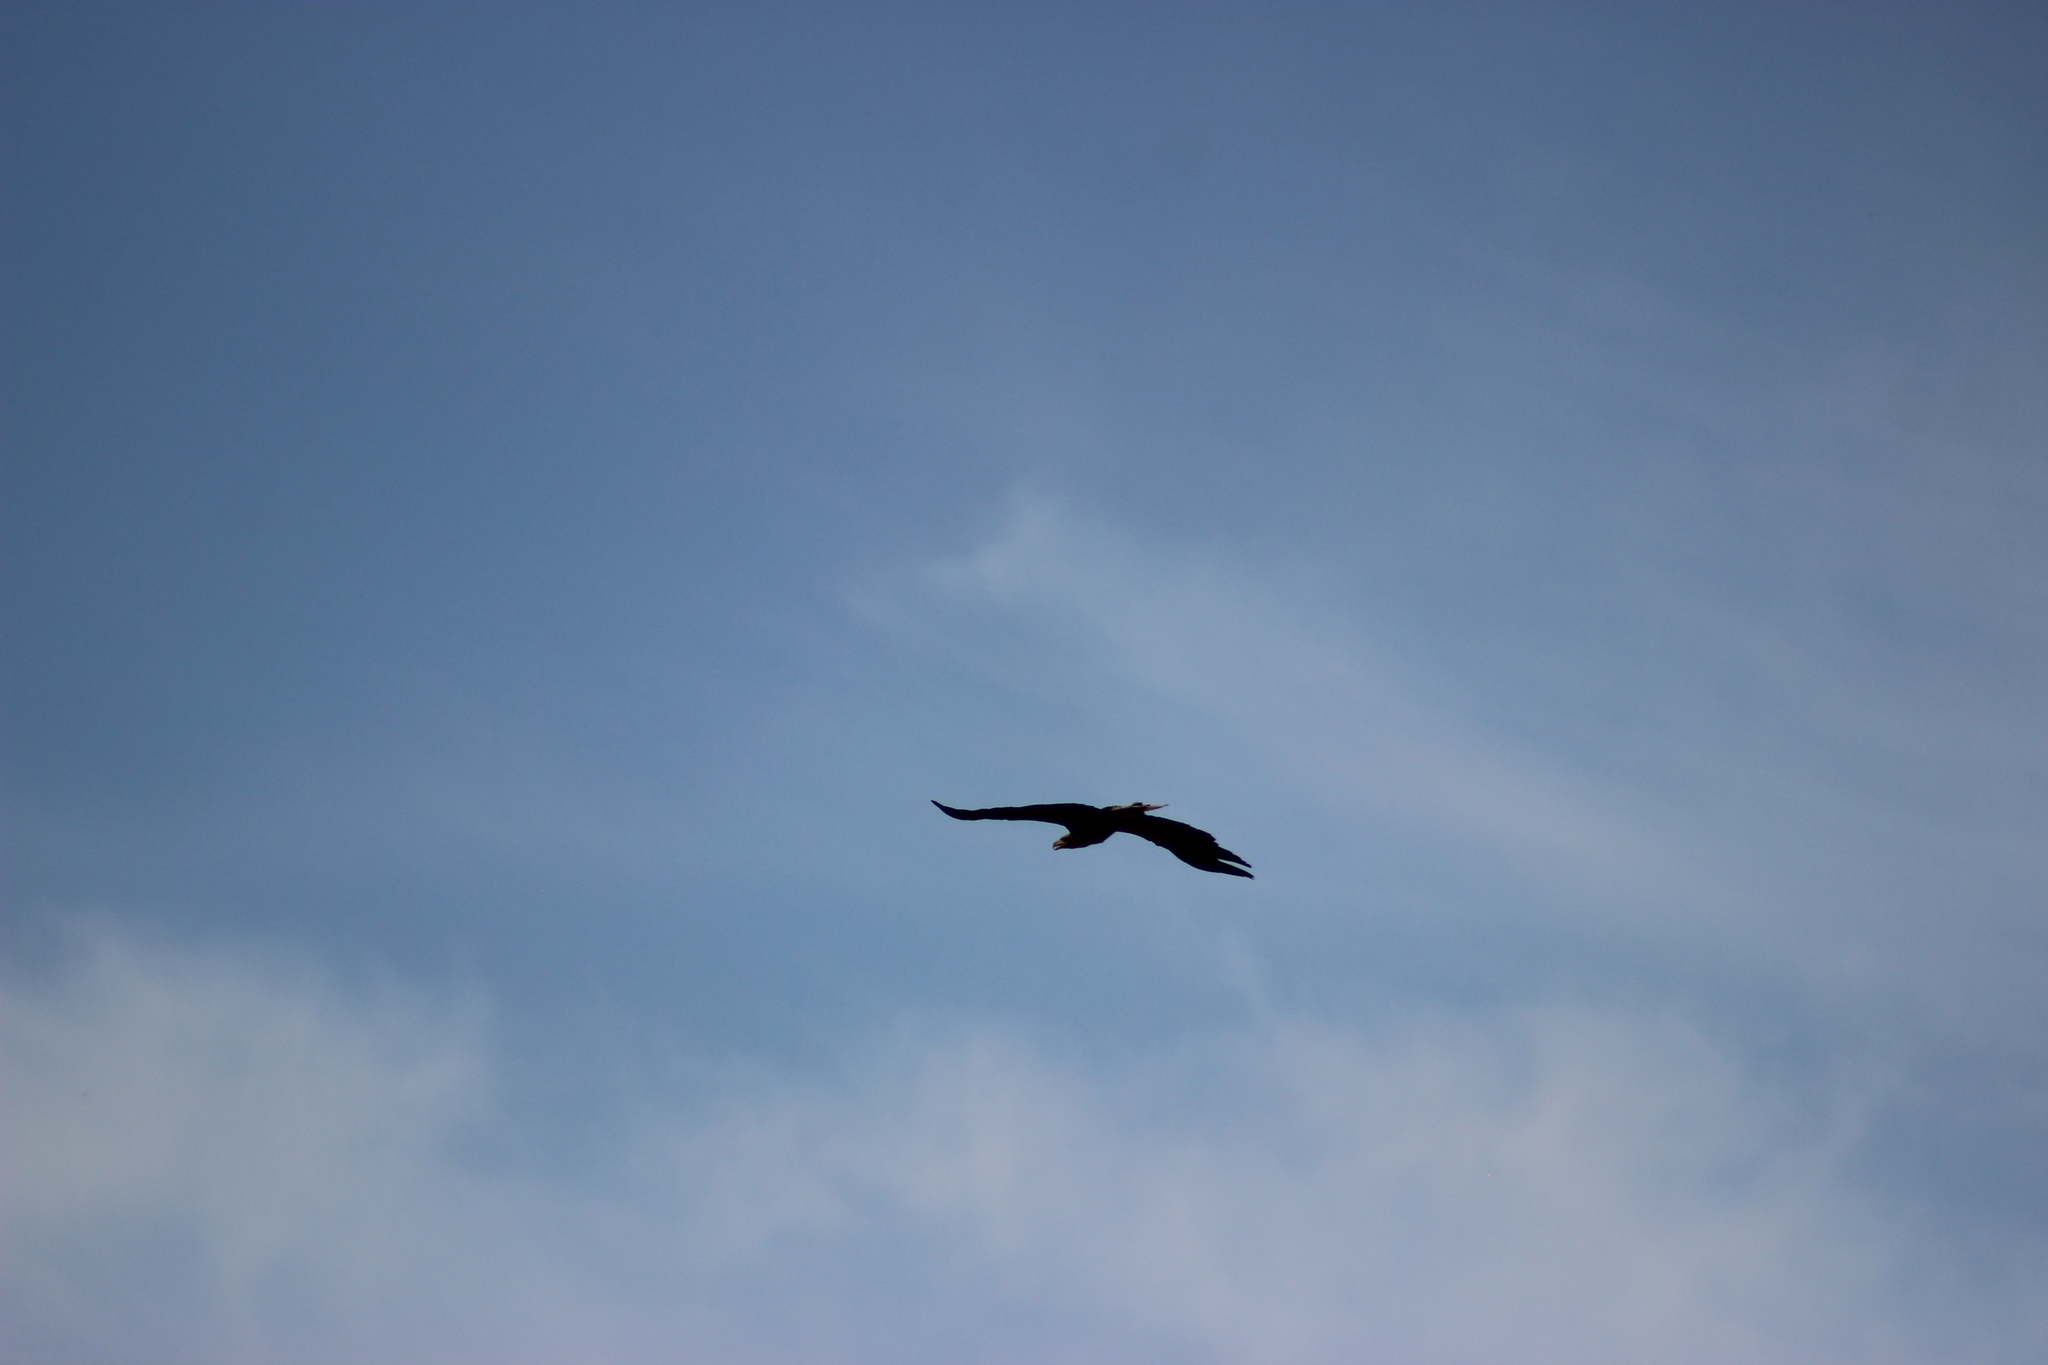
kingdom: Animalia
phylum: Chordata
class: Aves
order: Accipitriformes
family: Accipitridae
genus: Haliaeetus
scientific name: Haliaeetus albicilla
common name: White-tailed eagle
